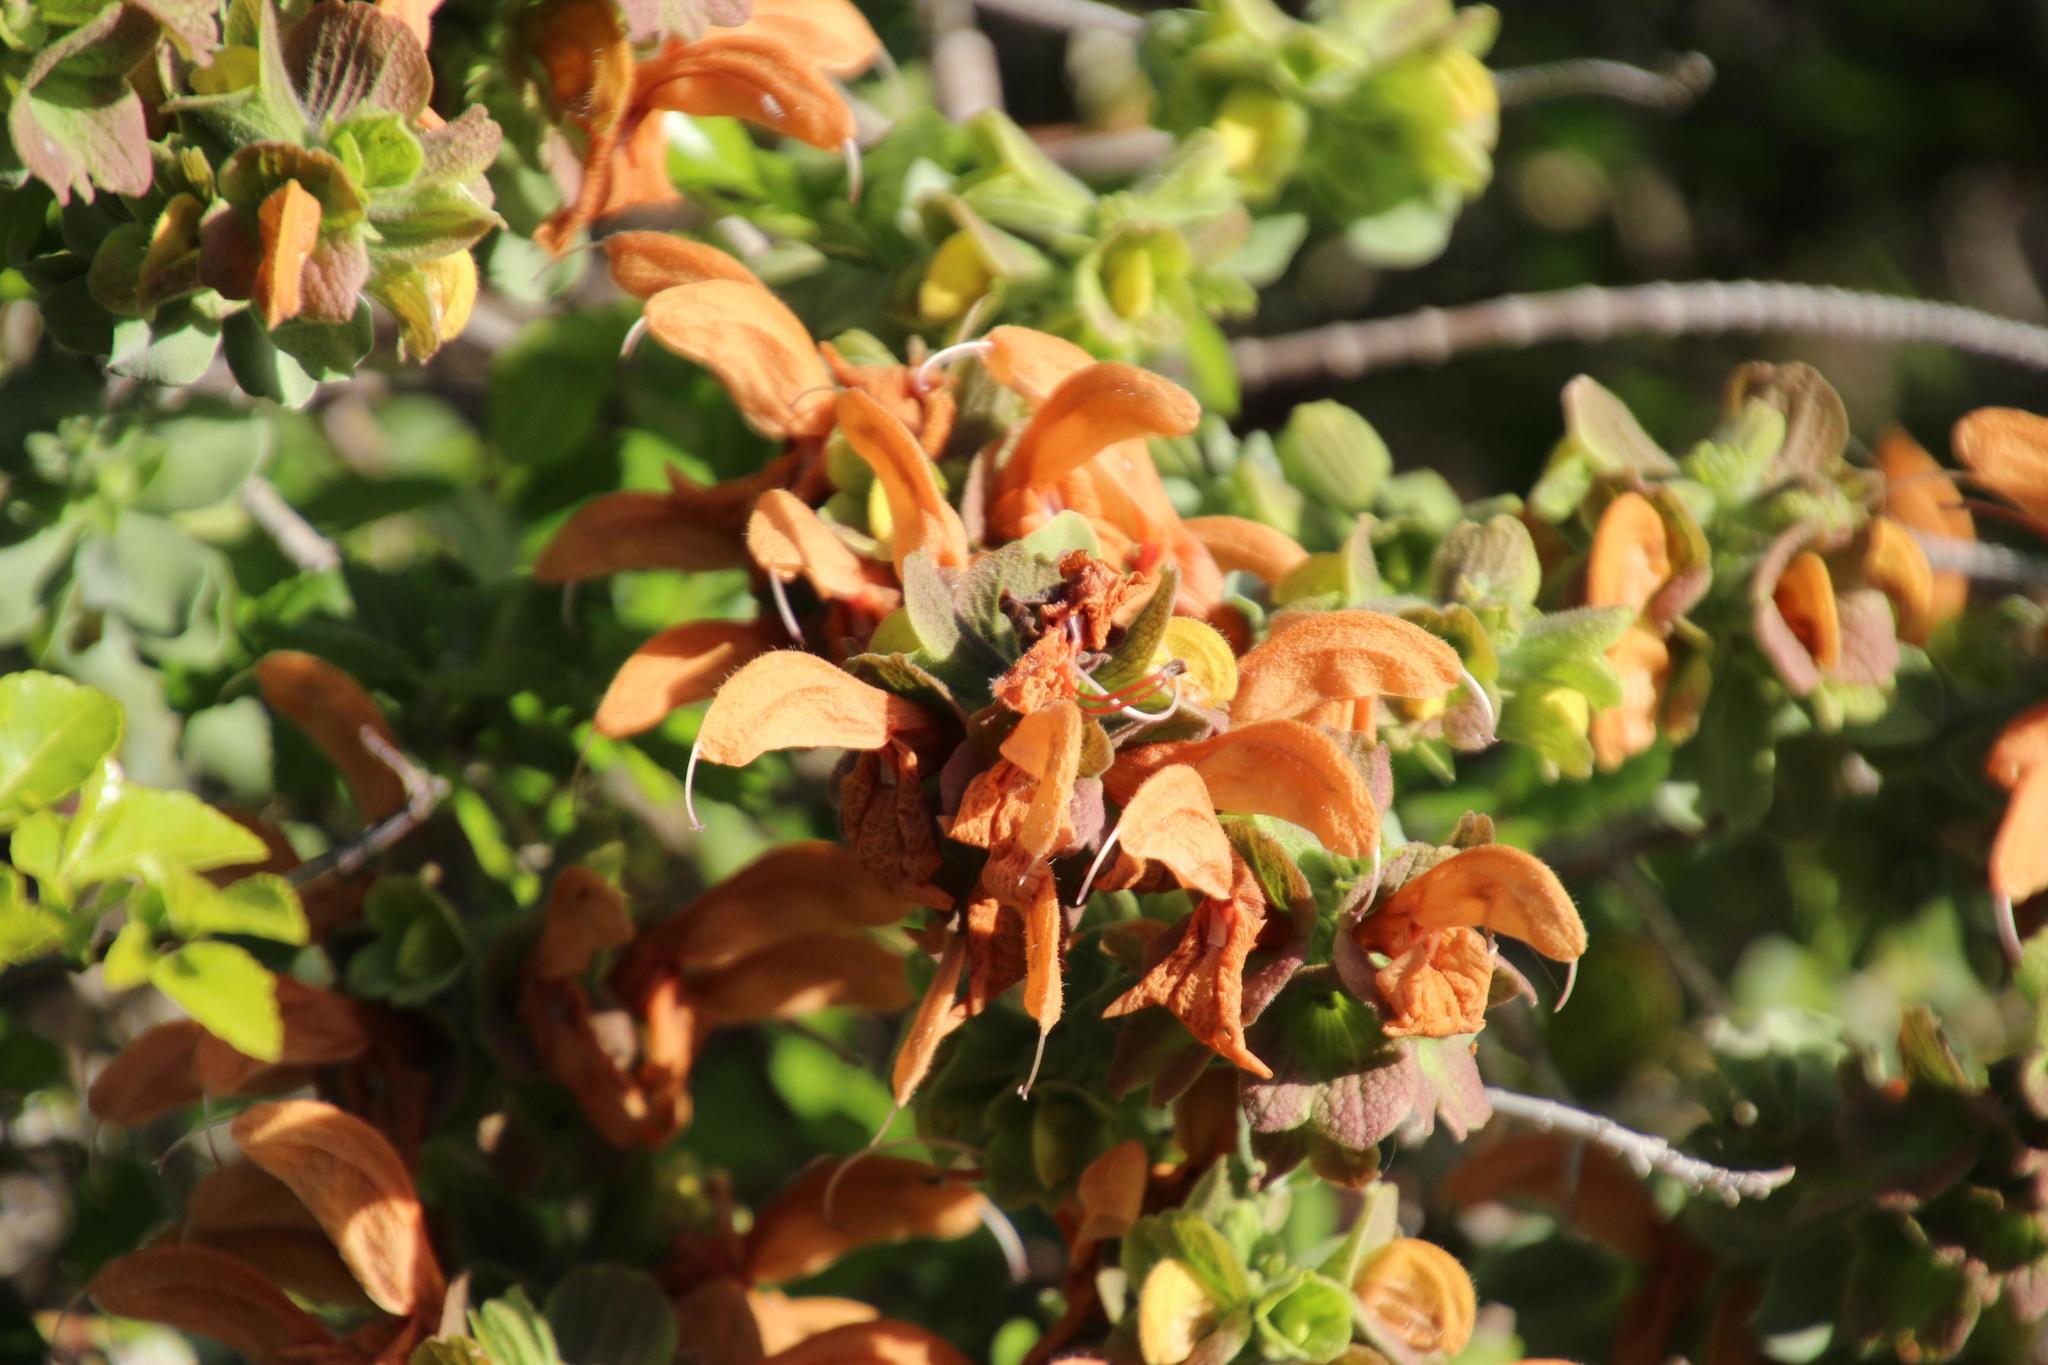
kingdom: Plantae
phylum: Tracheophyta
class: Magnoliopsida
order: Lamiales
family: Lamiaceae
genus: Salvia
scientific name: Salvia aurea
